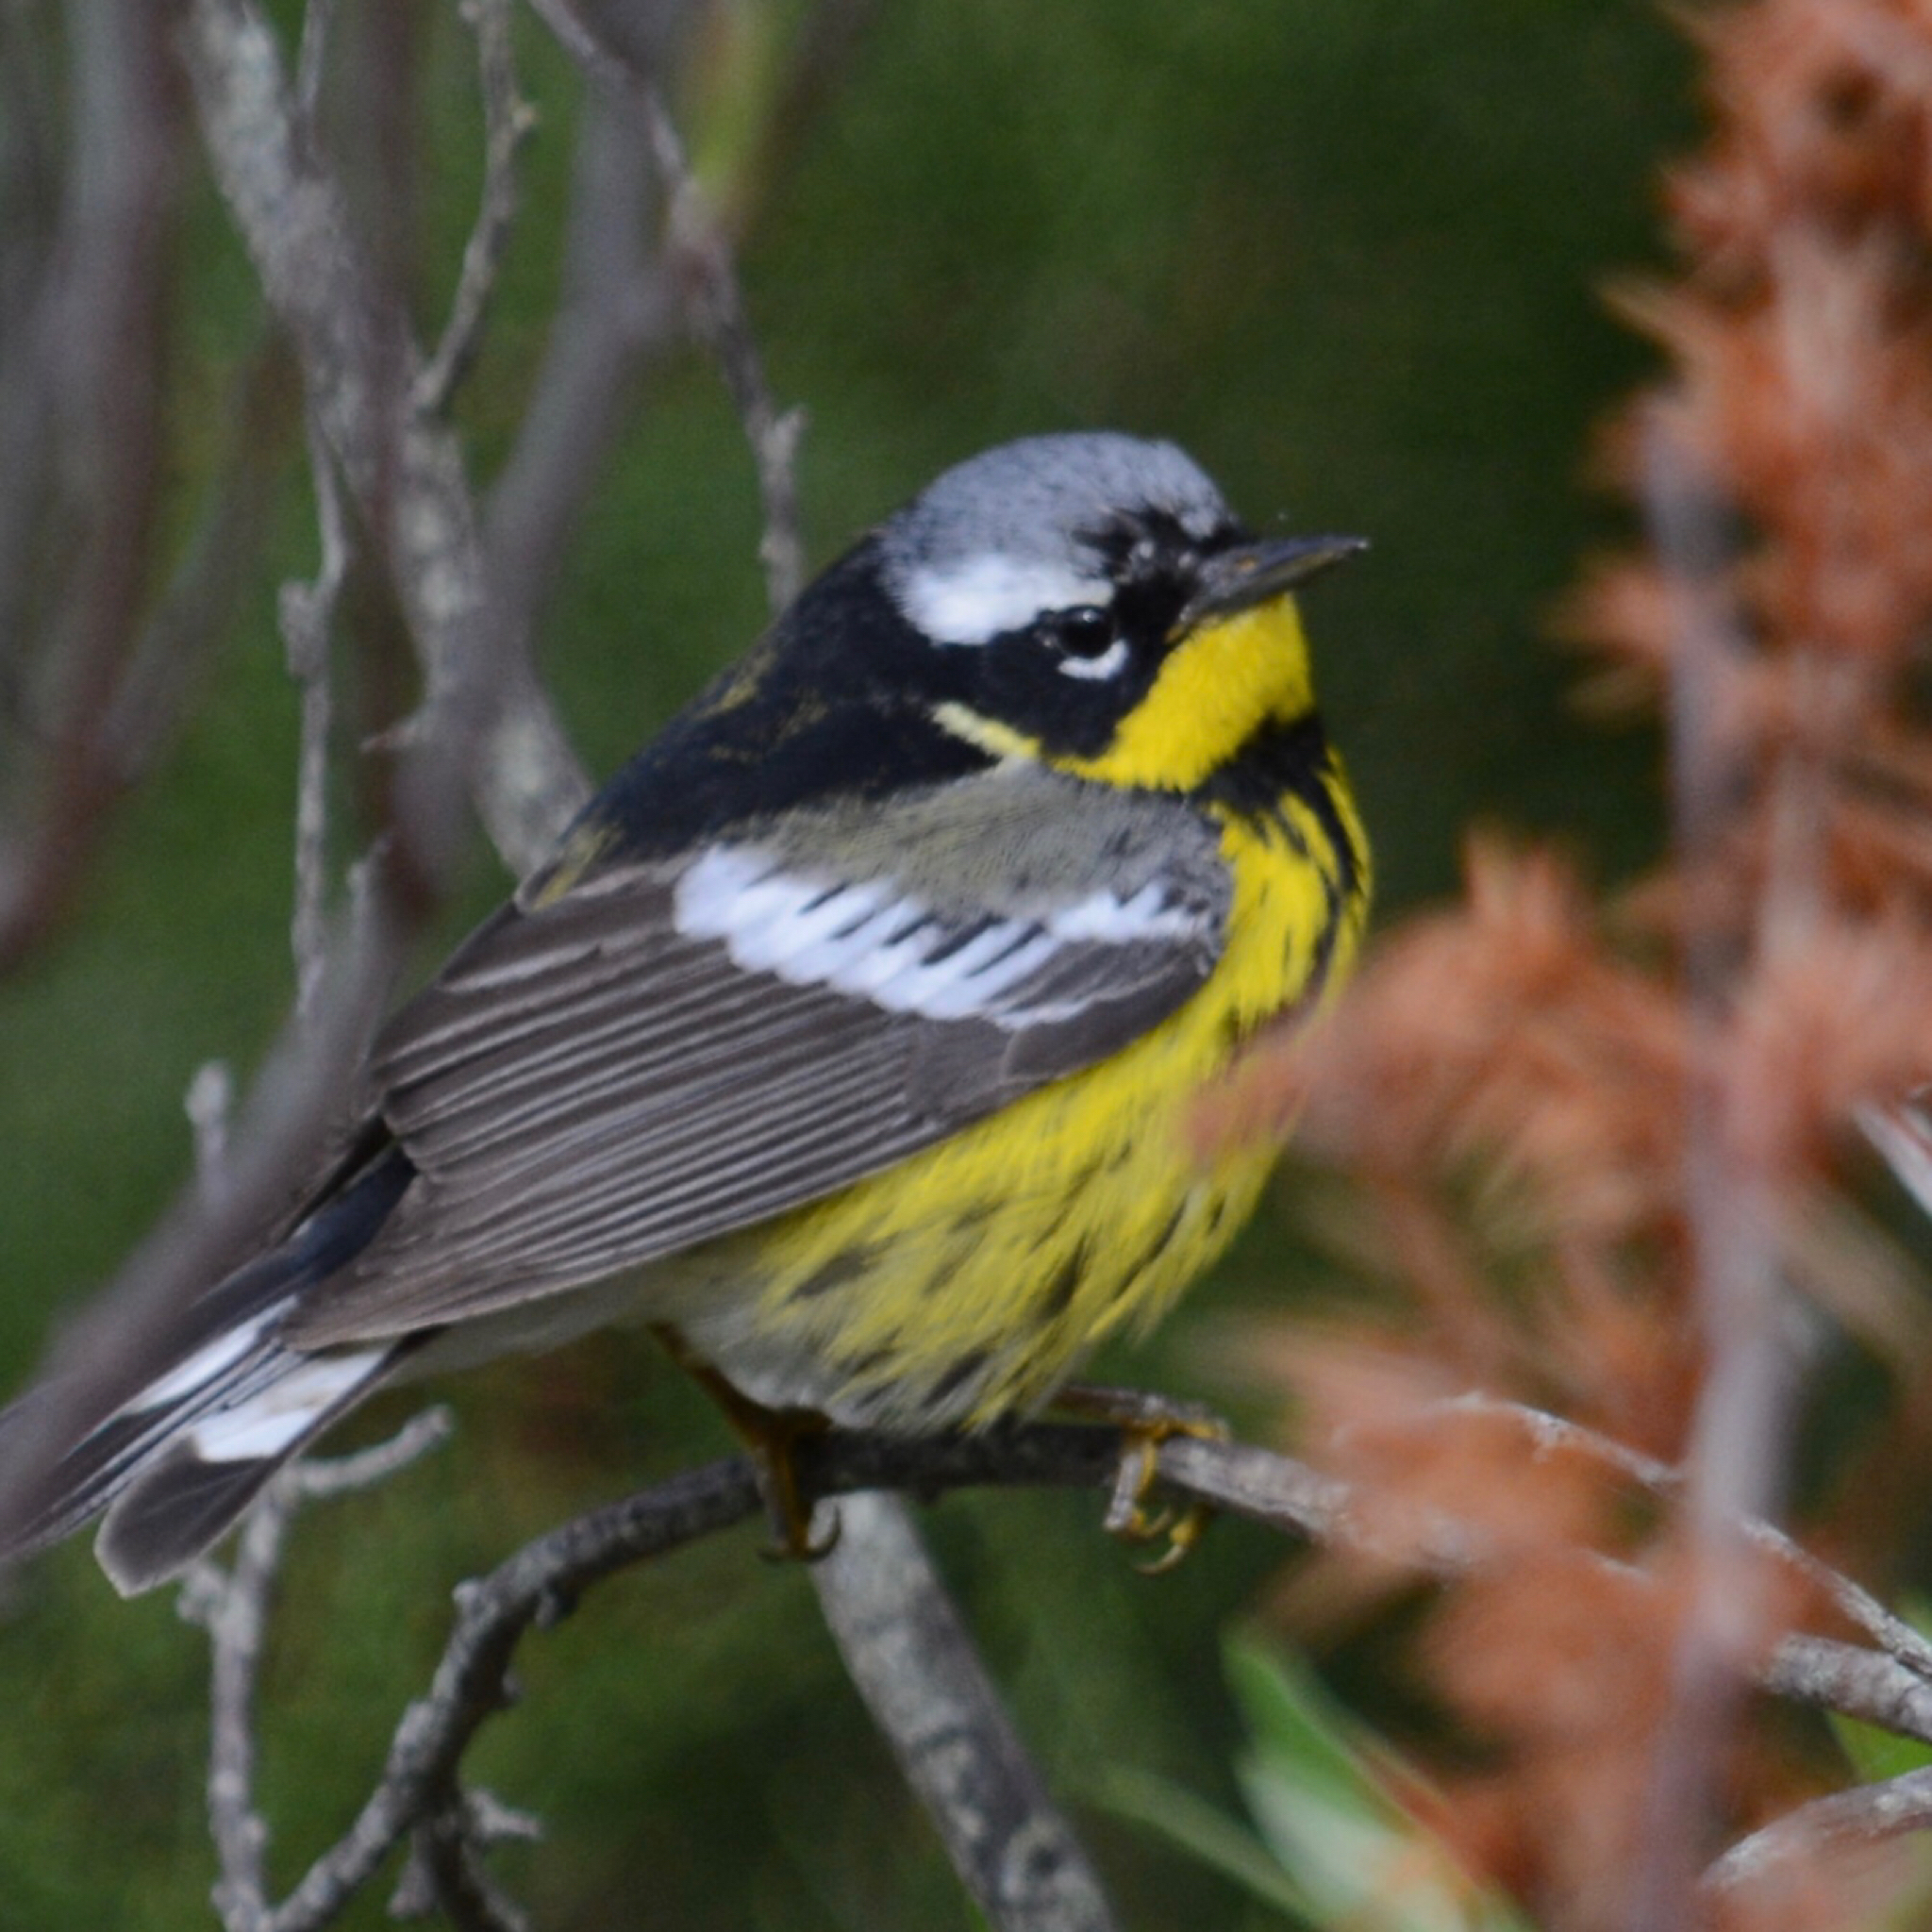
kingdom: Animalia
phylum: Chordata
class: Aves
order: Passeriformes
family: Parulidae
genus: Setophaga
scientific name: Setophaga magnolia
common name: Magnolia warbler
